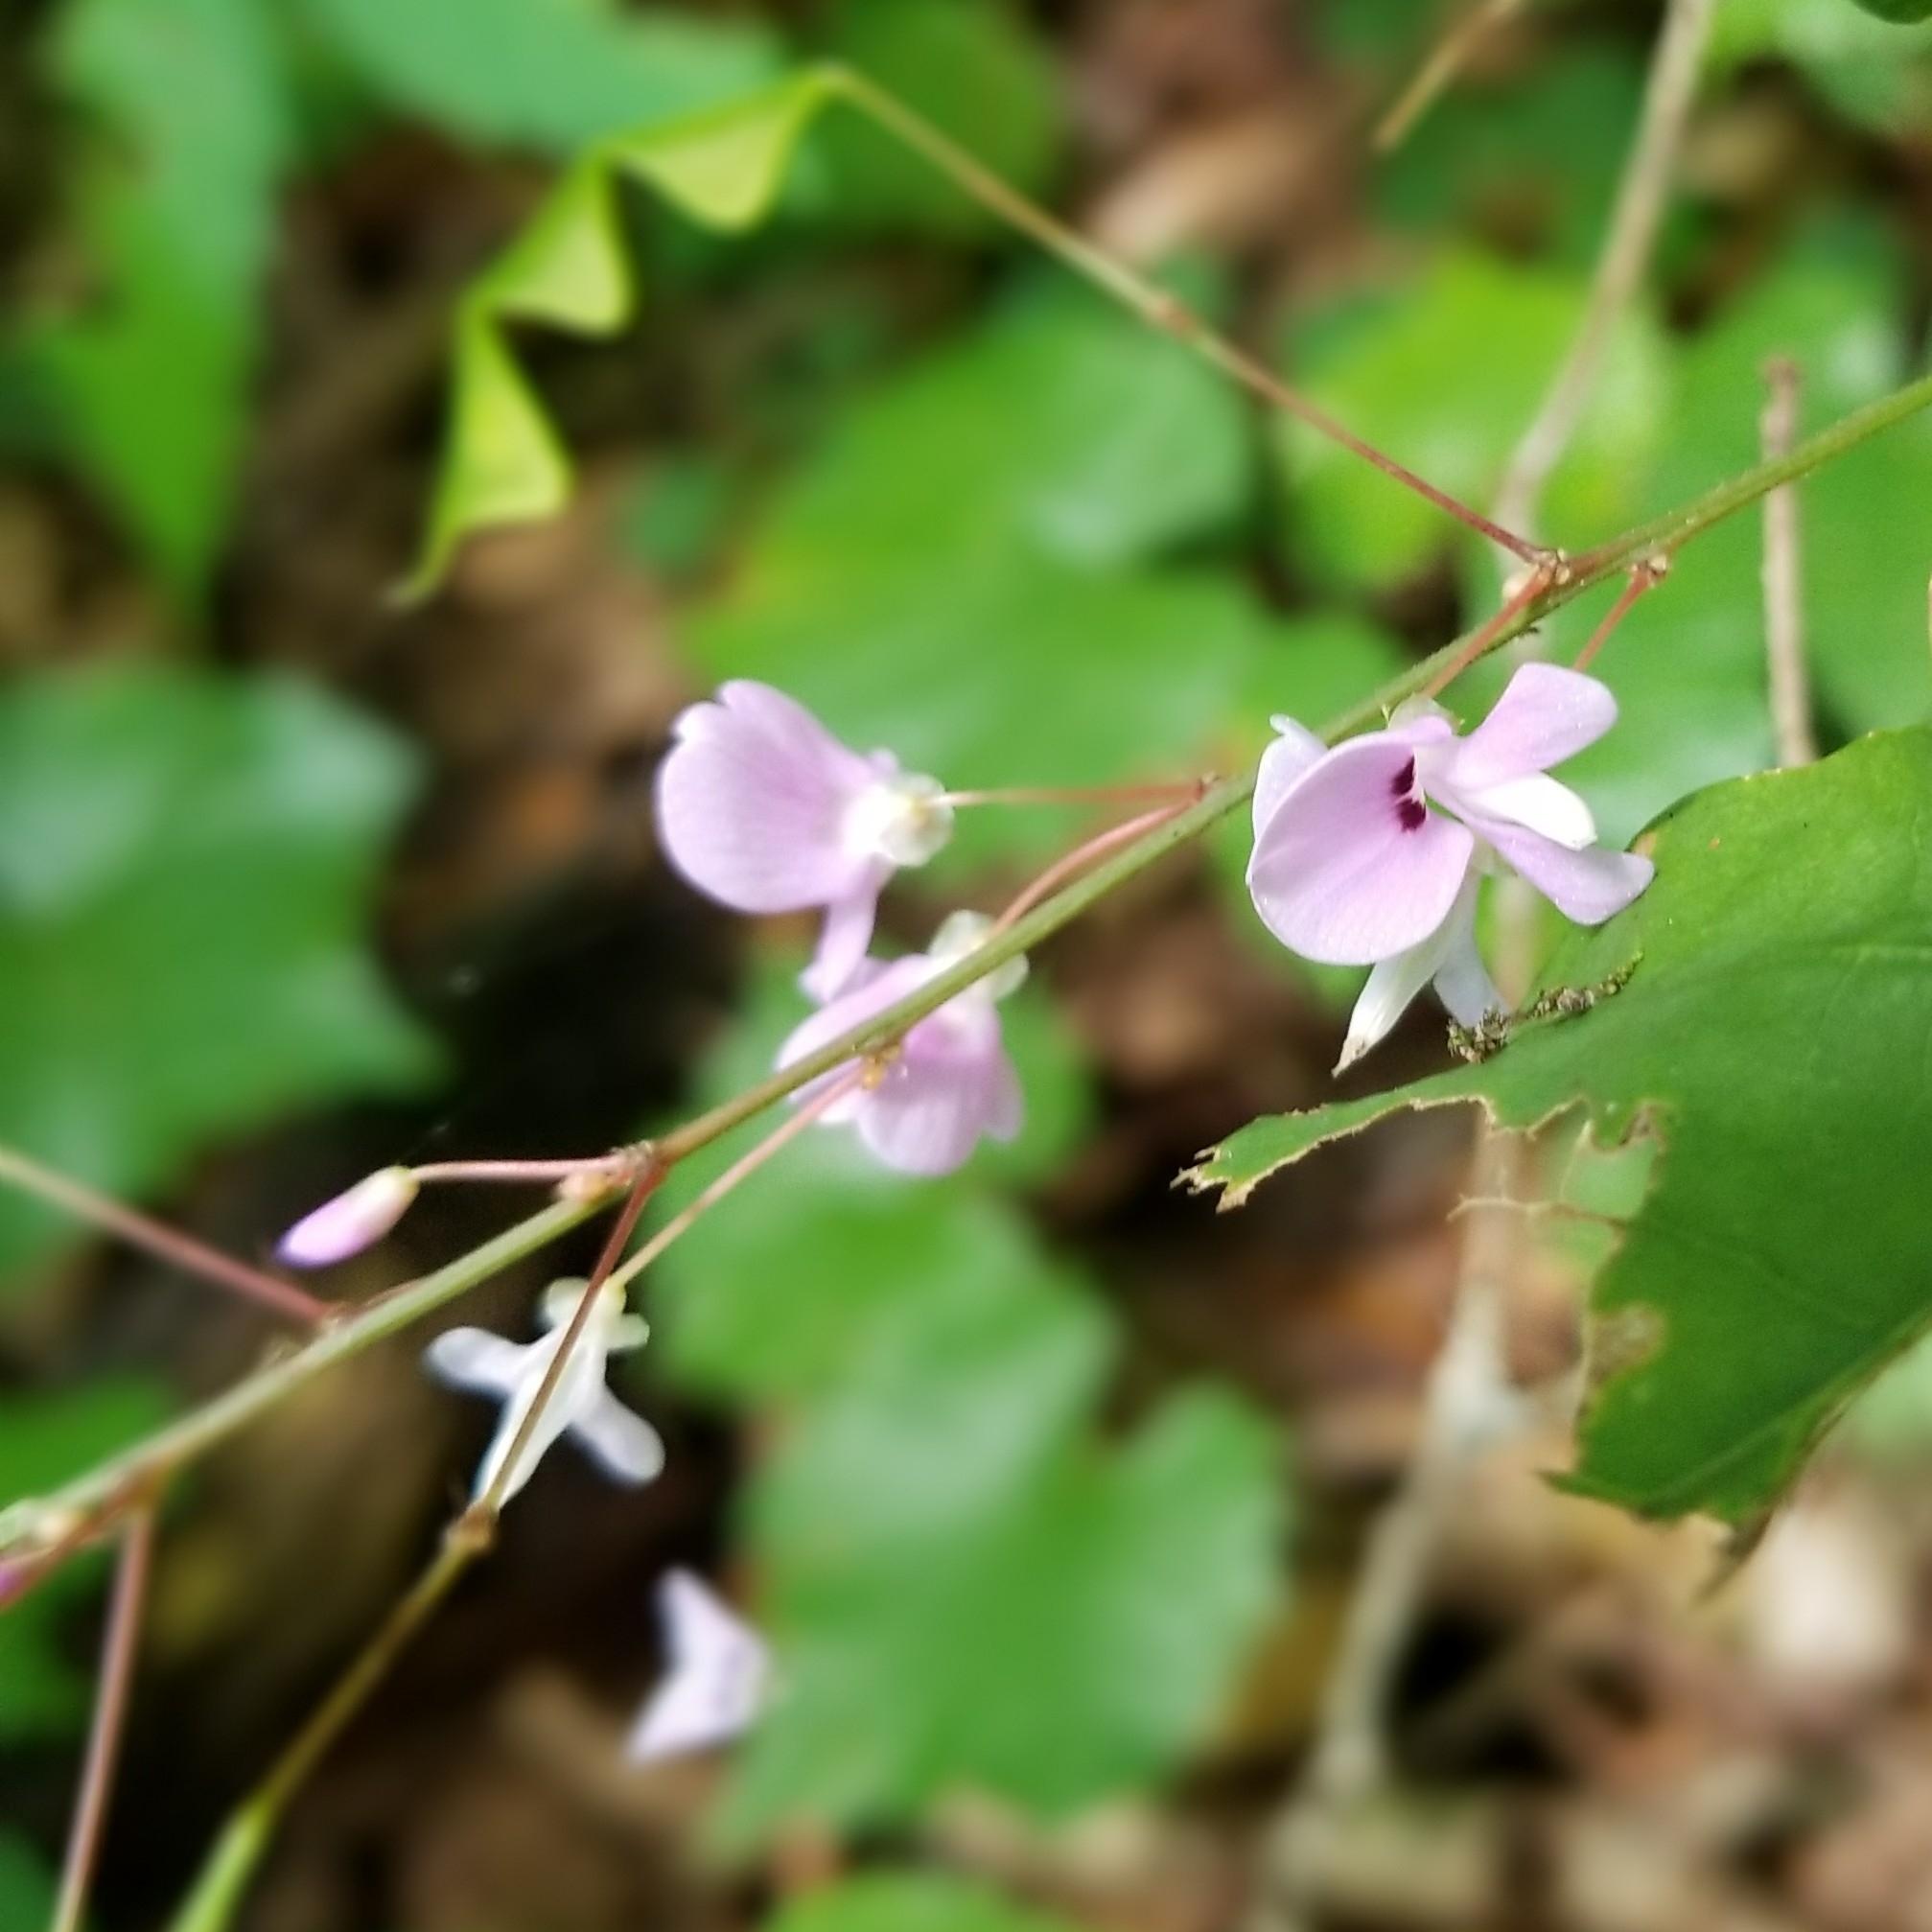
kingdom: Plantae
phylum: Tracheophyta
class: Magnoliopsida
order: Fabales
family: Fabaceae
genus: Hylodesmum
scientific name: Hylodesmum nudiflorum
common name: Bare-stemmed tick-trefoil
